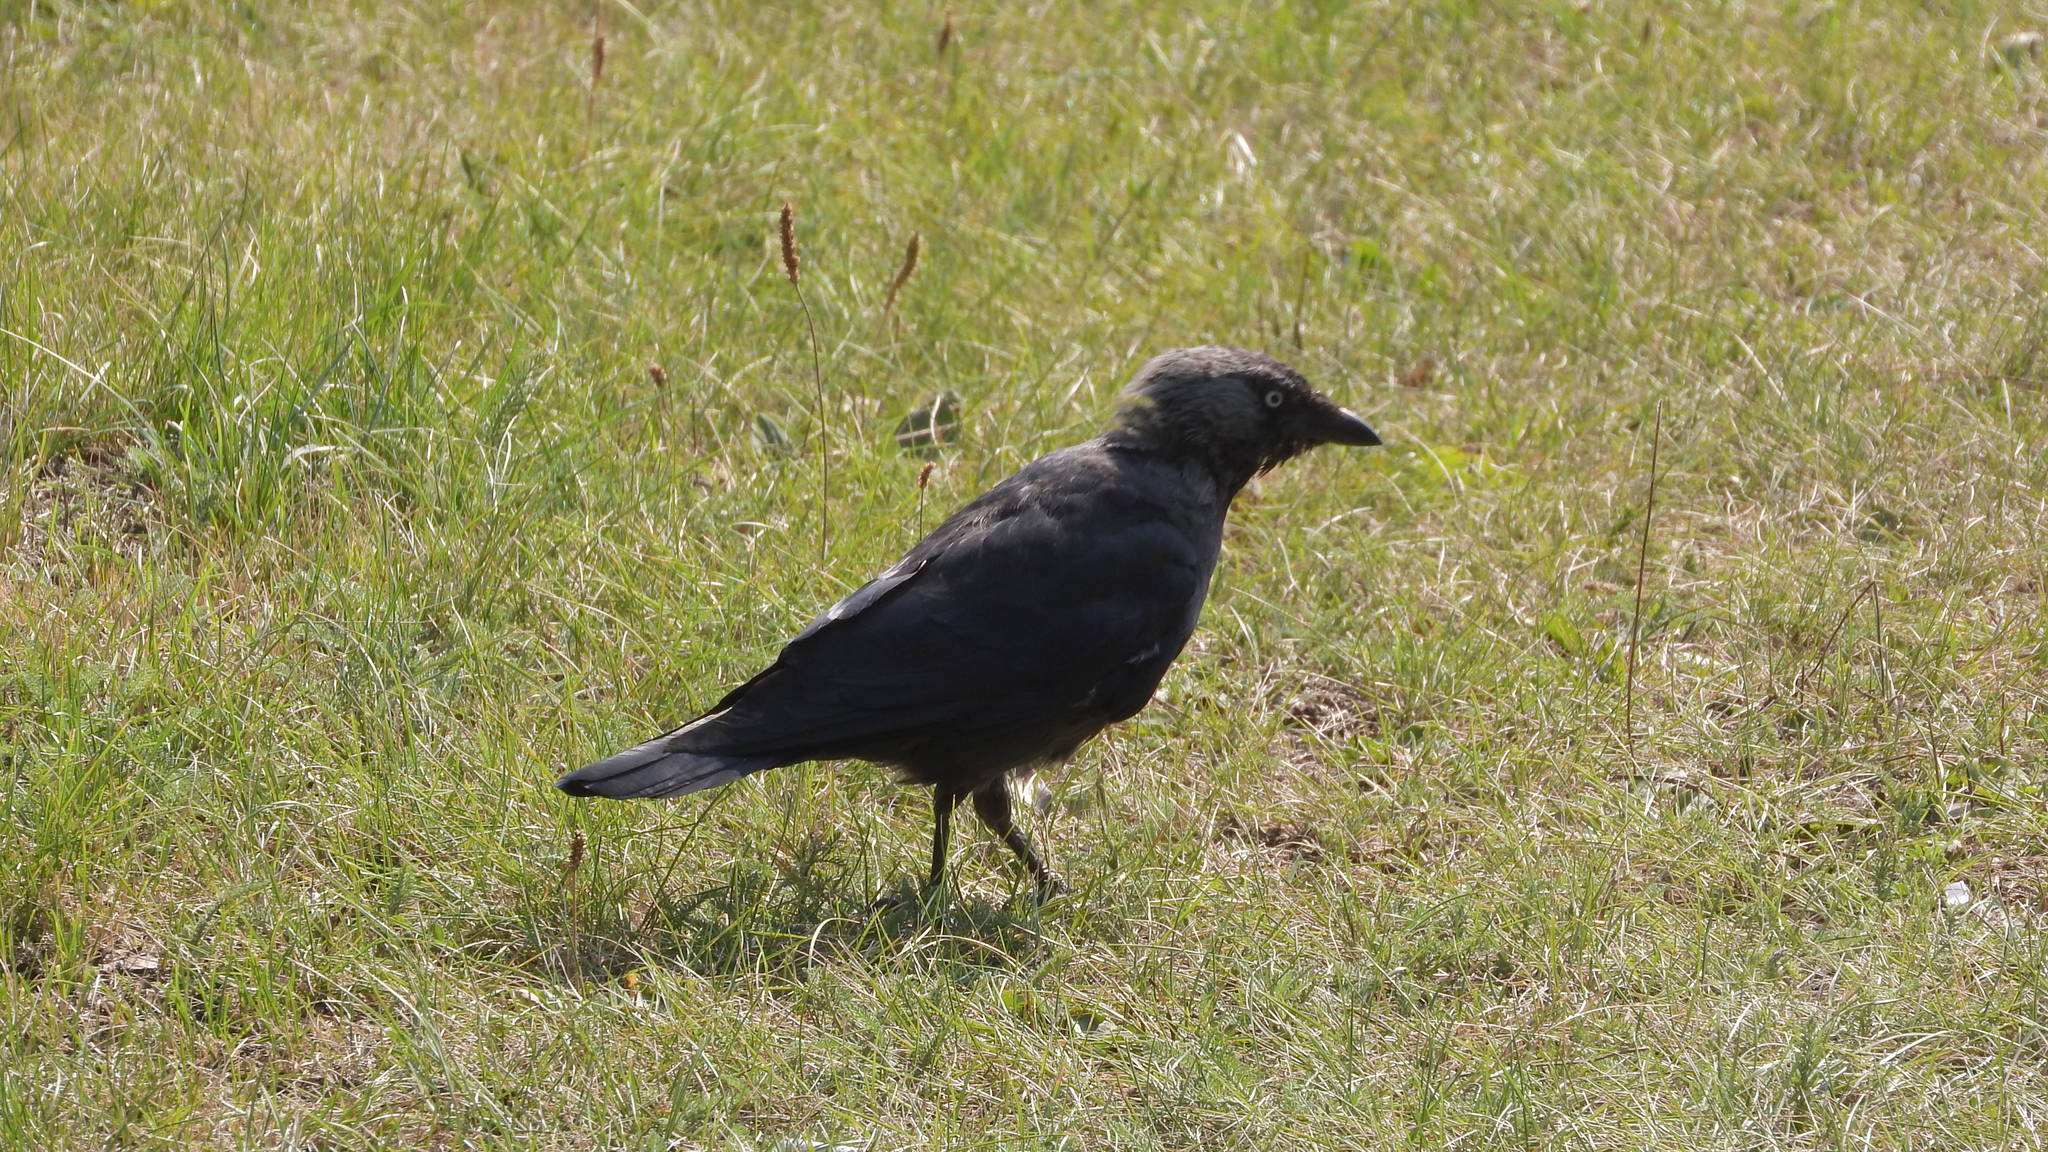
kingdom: Animalia
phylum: Chordata
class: Aves
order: Passeriformes
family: Corvidae
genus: Coloeus
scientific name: Coloeus monedula
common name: Western jackdaw
